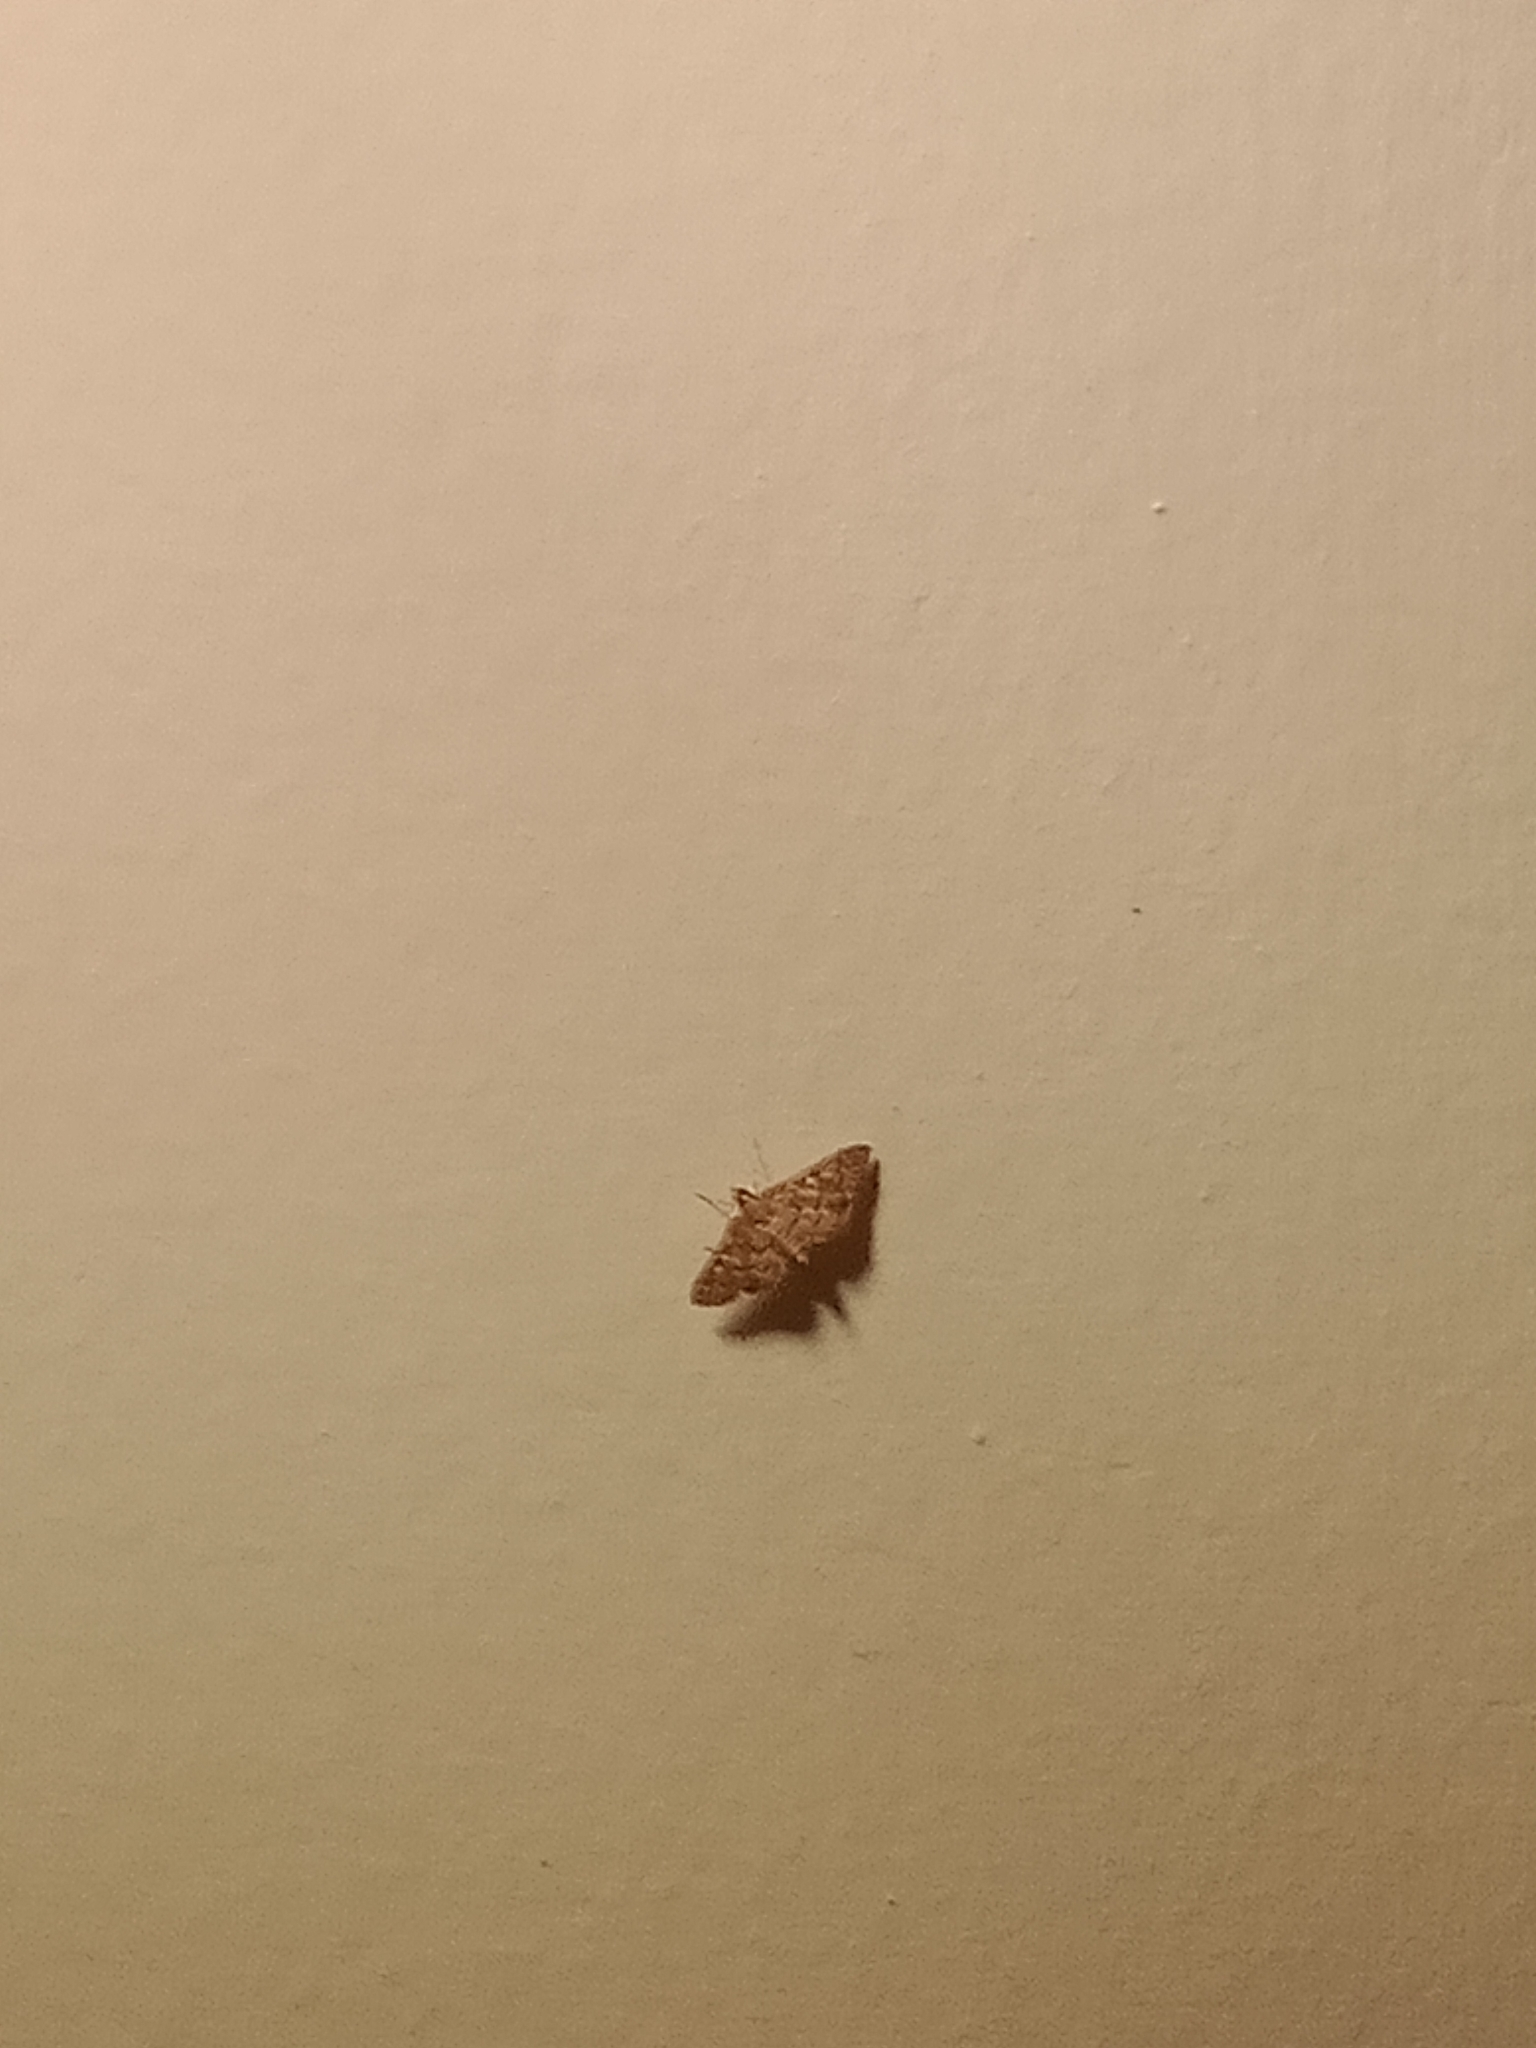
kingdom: Animalia
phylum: Arthropoda
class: Insecta
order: Lepidoptera
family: Crambidae
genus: Nacoleia
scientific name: Nacoleia rhoeoalis
